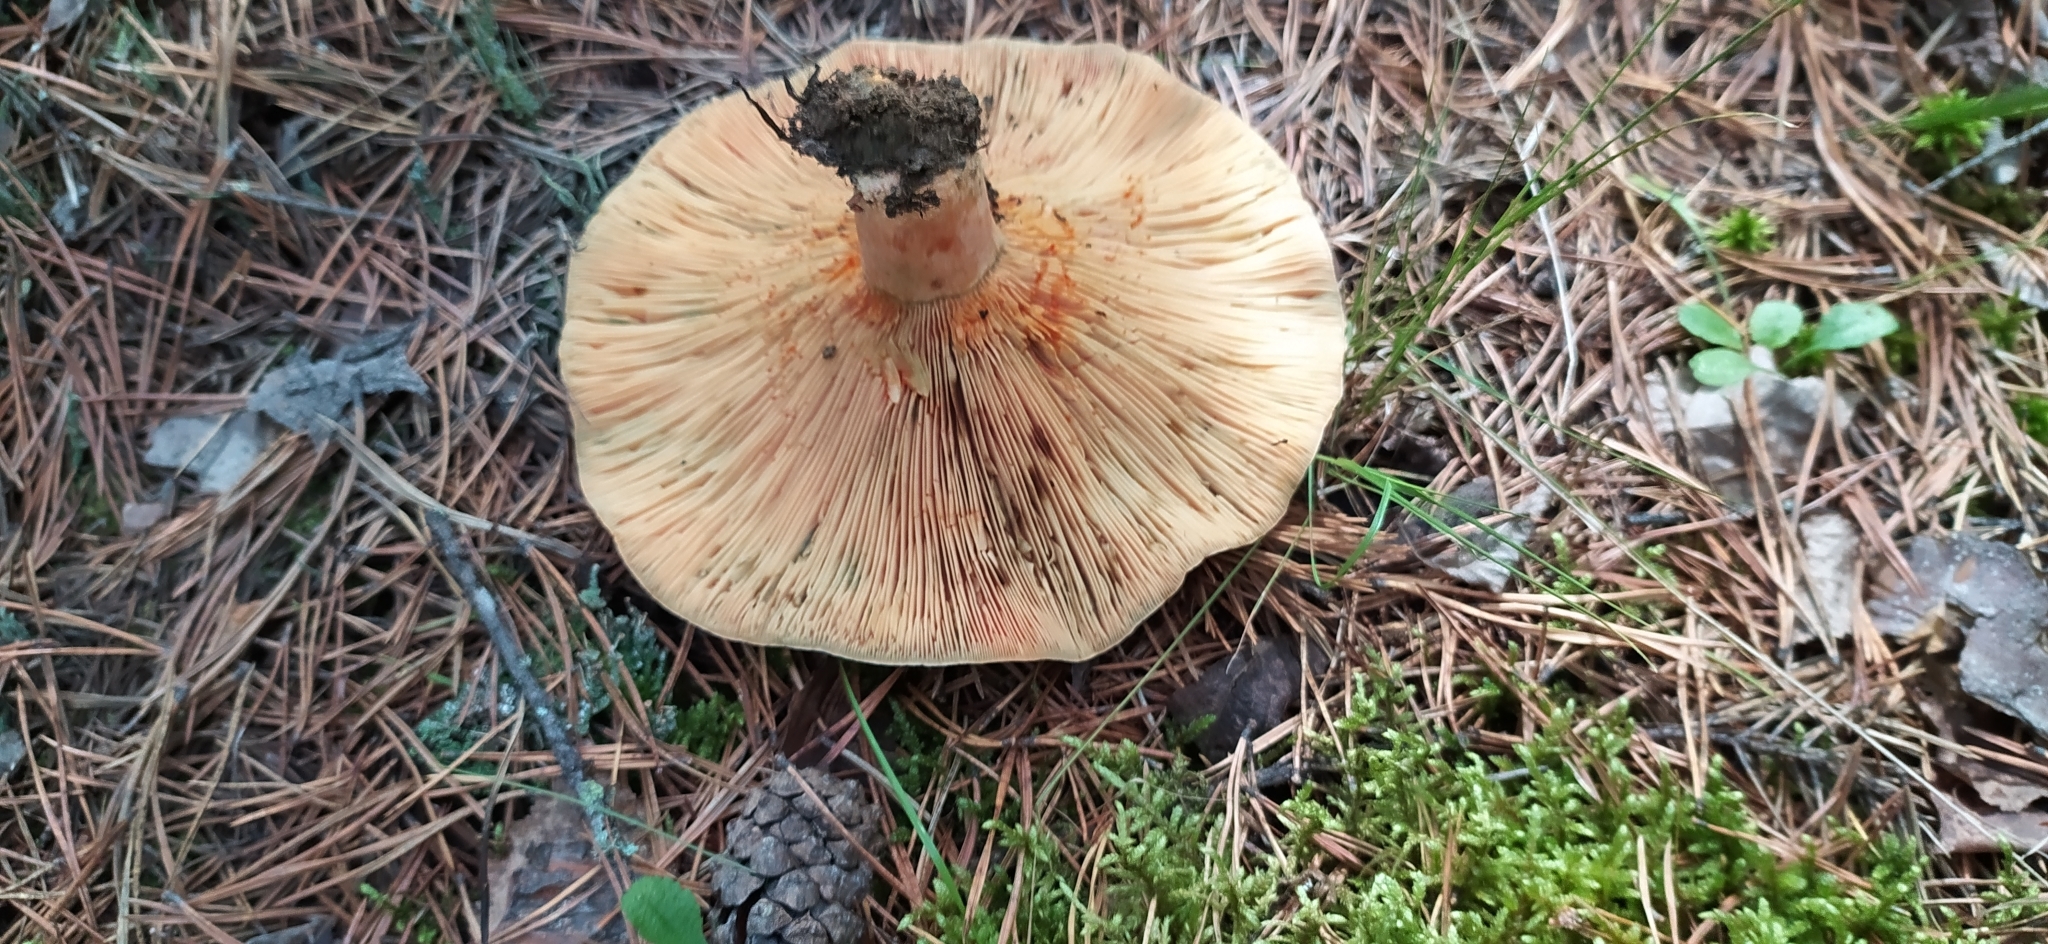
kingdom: Fungi
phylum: Basidiomycota
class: Agaricomycetes
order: Russulales
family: Russulaceae
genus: Lactarius
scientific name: Lactarius deliciosus
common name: Saffron milk-cap
